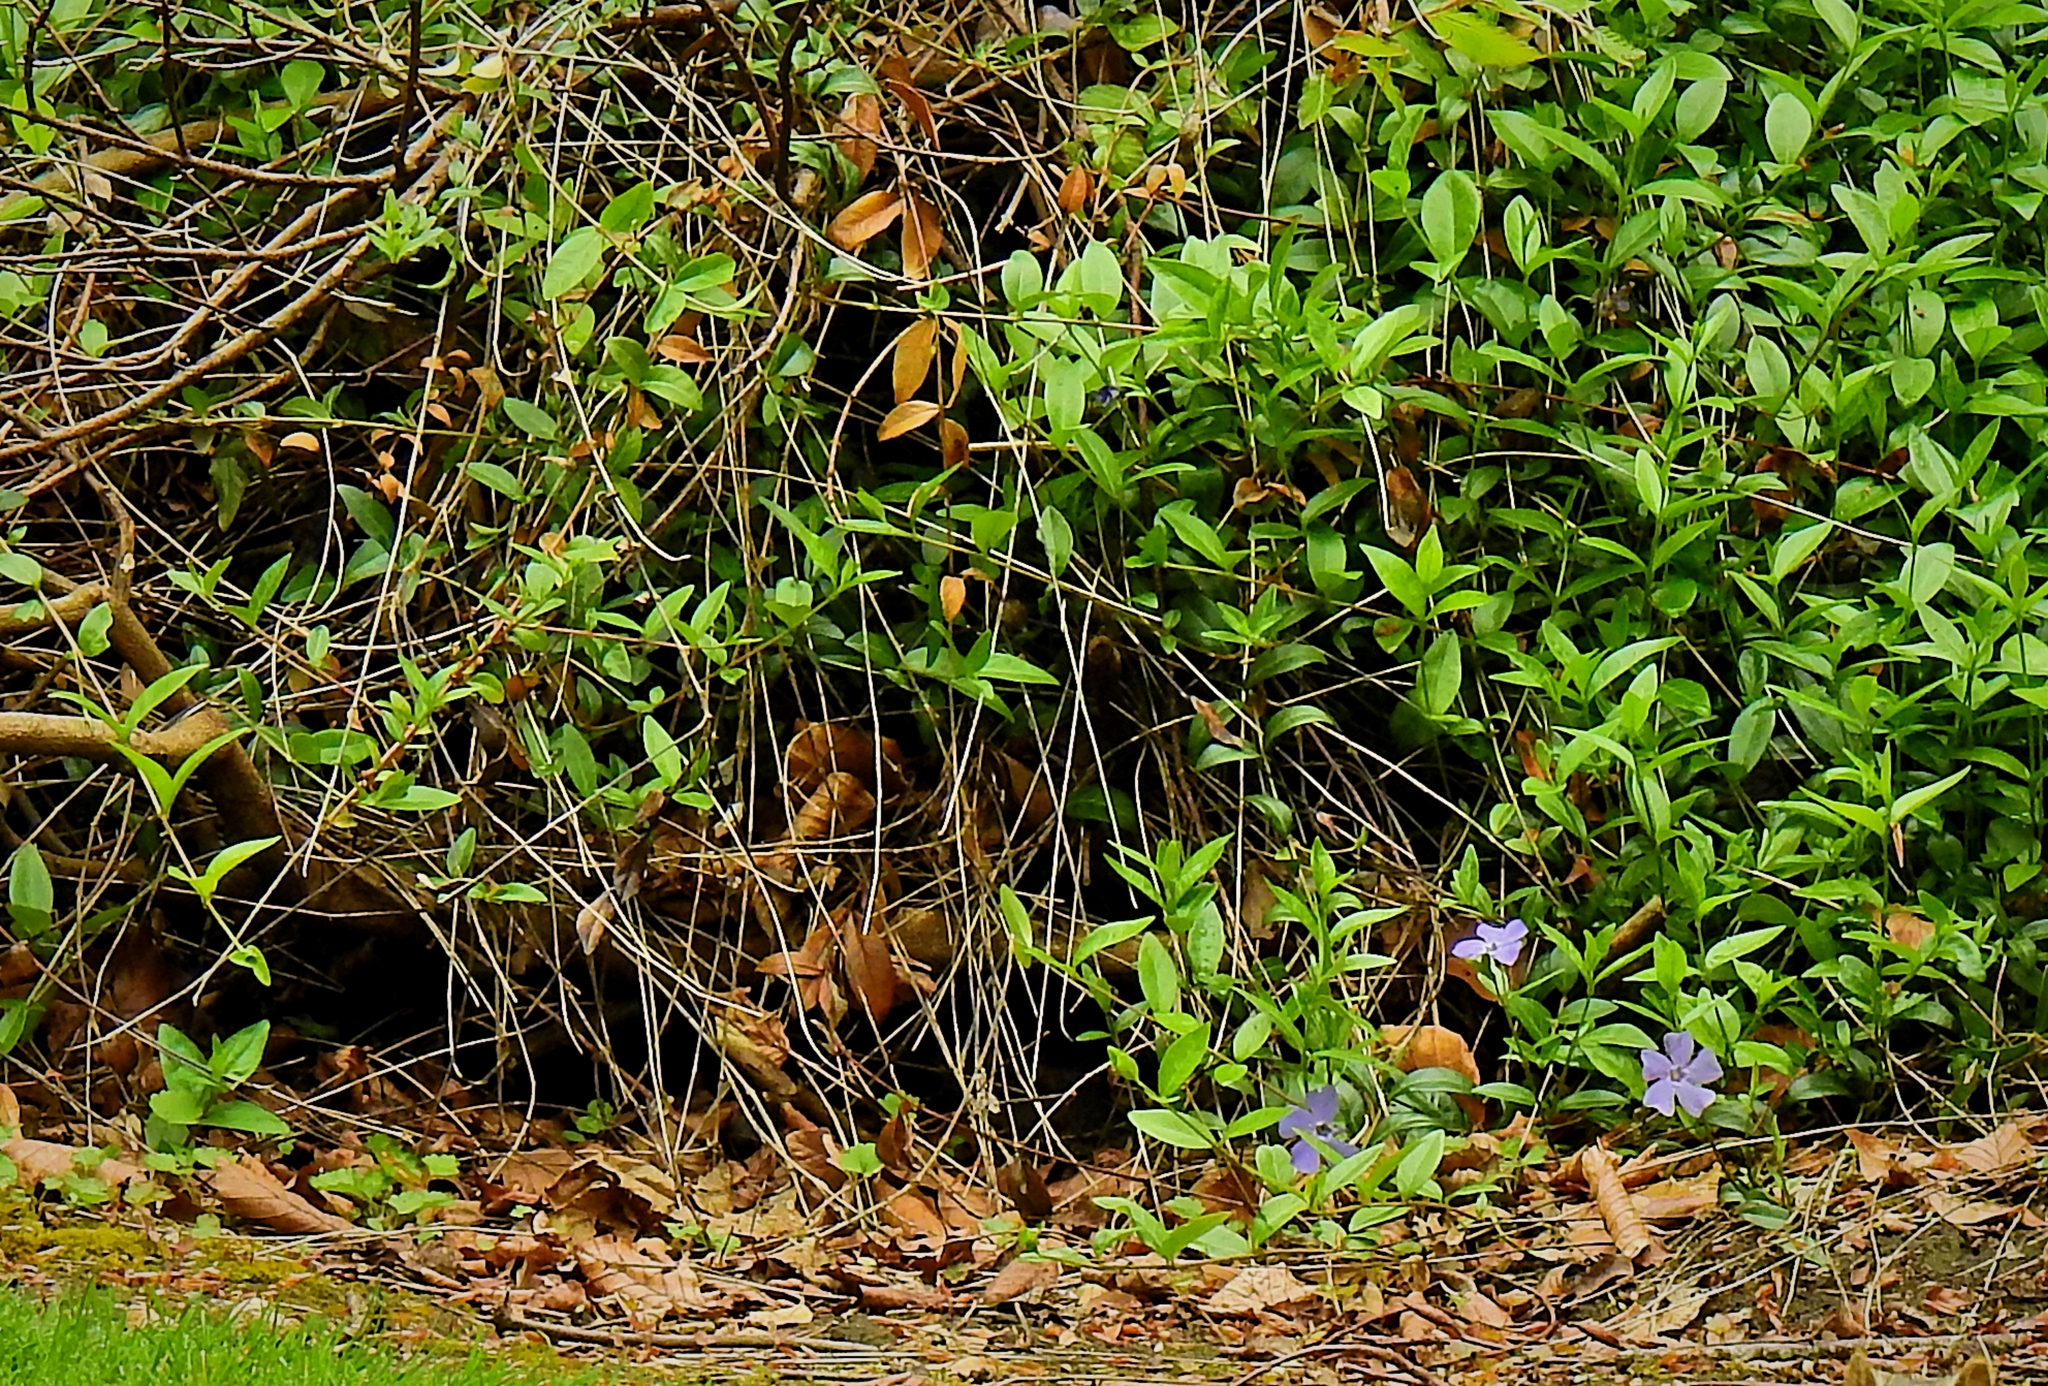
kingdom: Plantae
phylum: Tracheophyta
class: Magnoliopsida
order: Gentianales
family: Apocynaceae
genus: Vinca
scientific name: Vinca major
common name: Greater periwinkle
